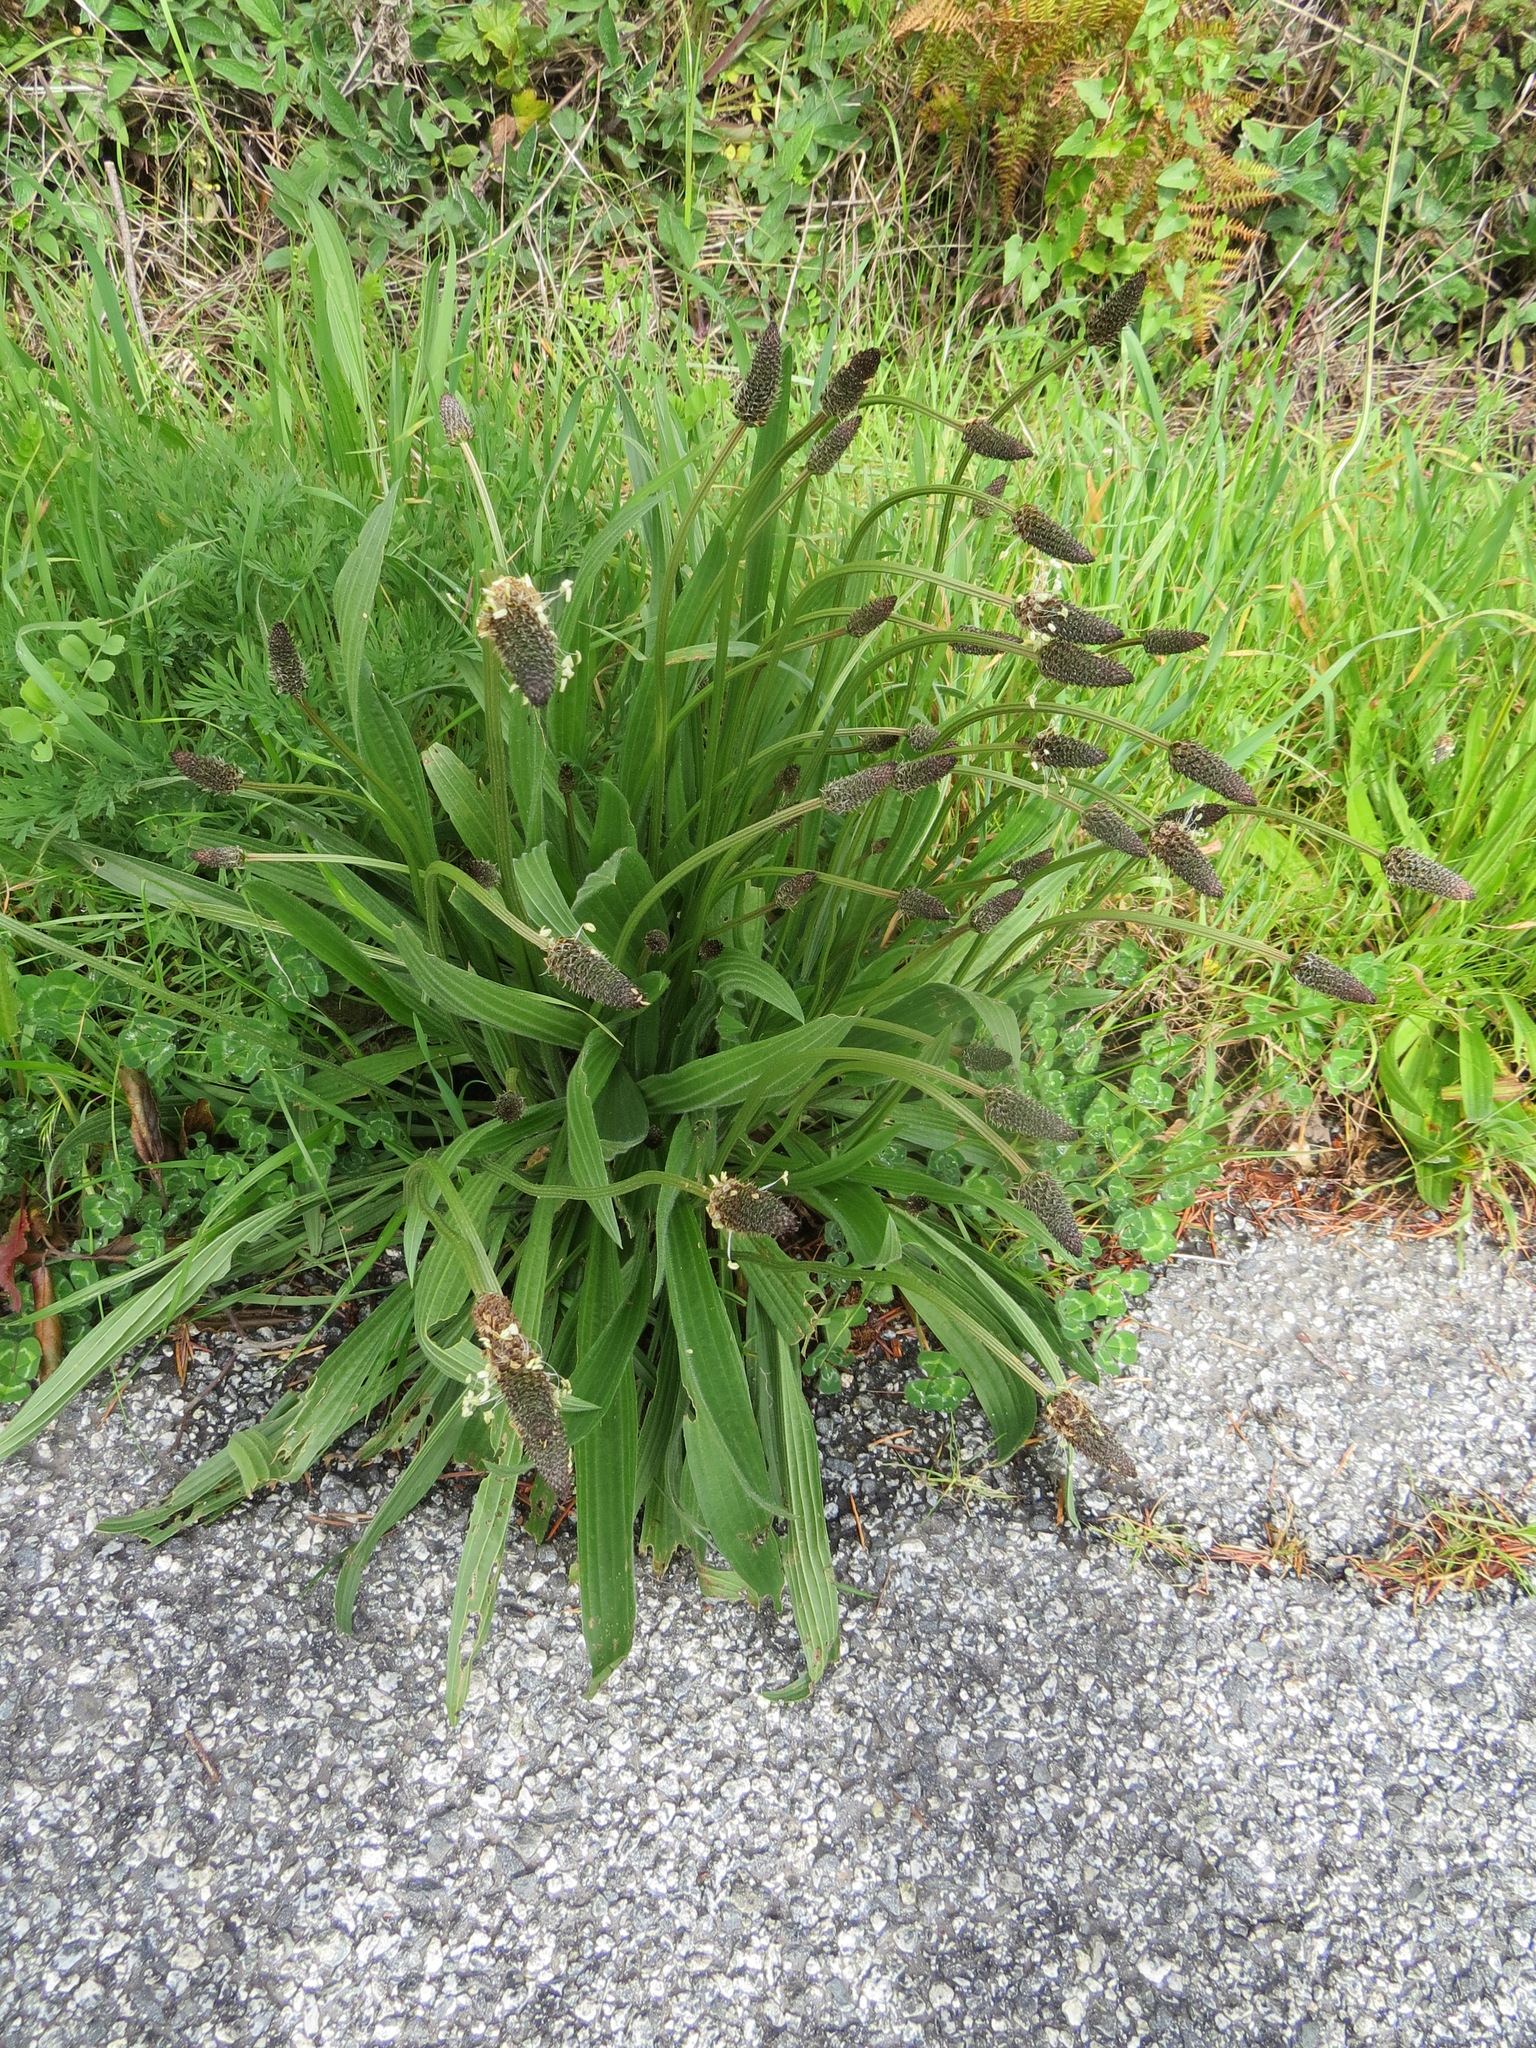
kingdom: Plantae
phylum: Tracheophyta
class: Magnoliopsida
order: Lamiales
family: Plantaginaceae
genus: Plantago
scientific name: Plantago lanceolata
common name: Ribwort plantain
